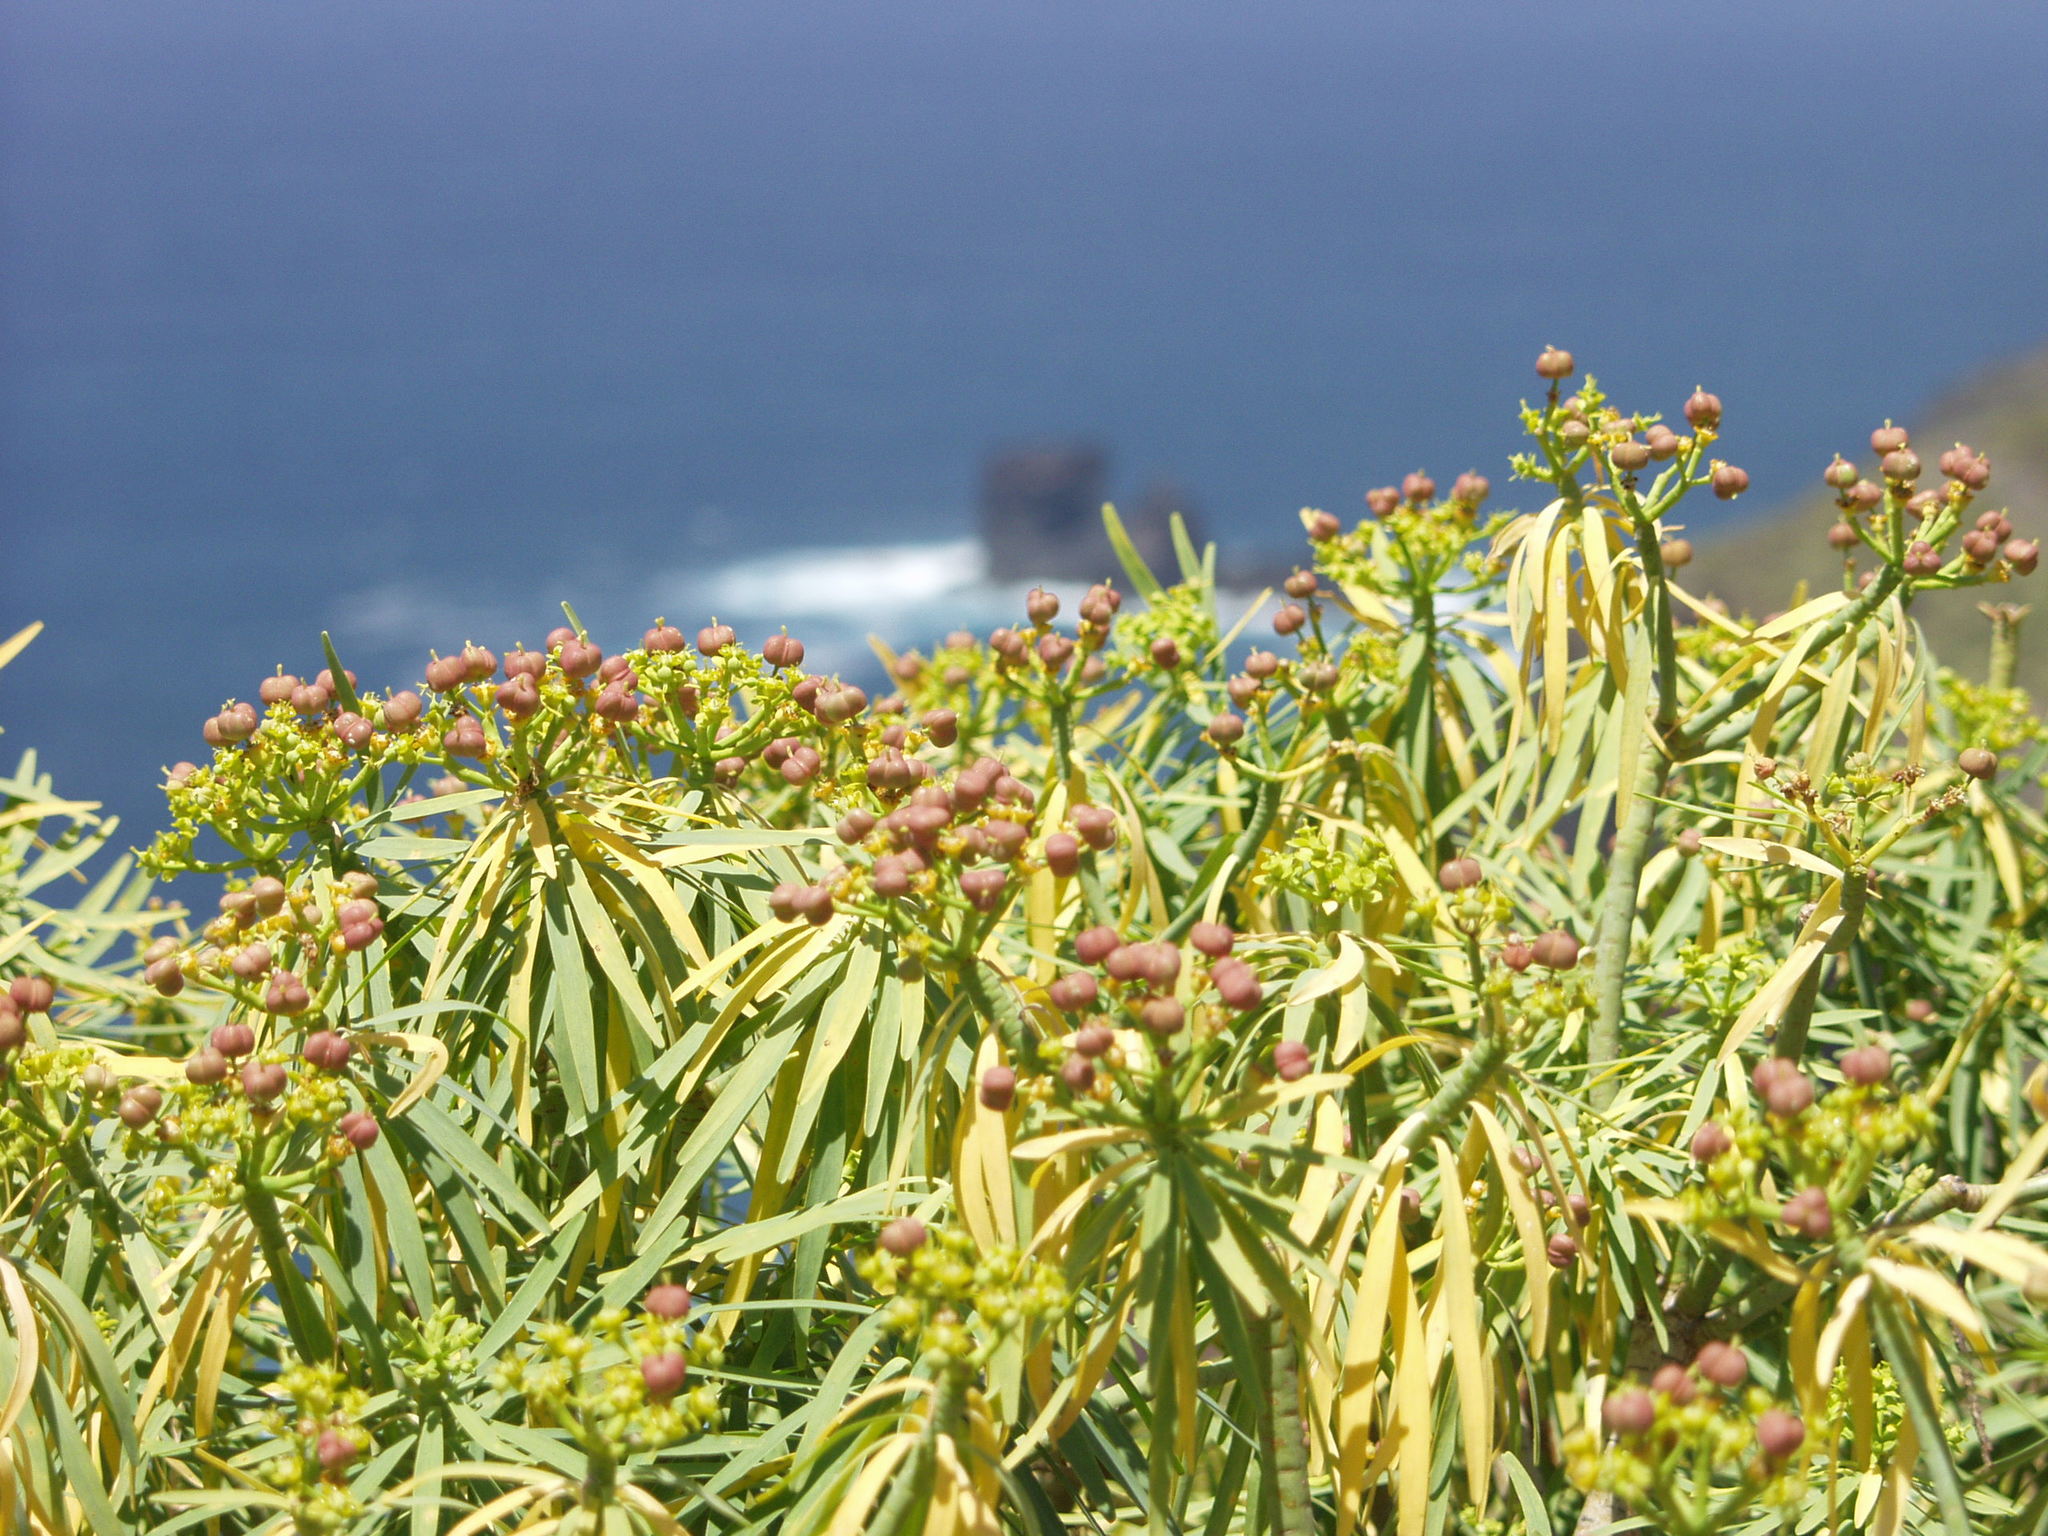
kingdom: Plantae
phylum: Tracheophyta
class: Magnoliopsida
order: Malpighiales
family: Euphorbiaceae
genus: Euphorbia
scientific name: Euphorbia lamarckii
